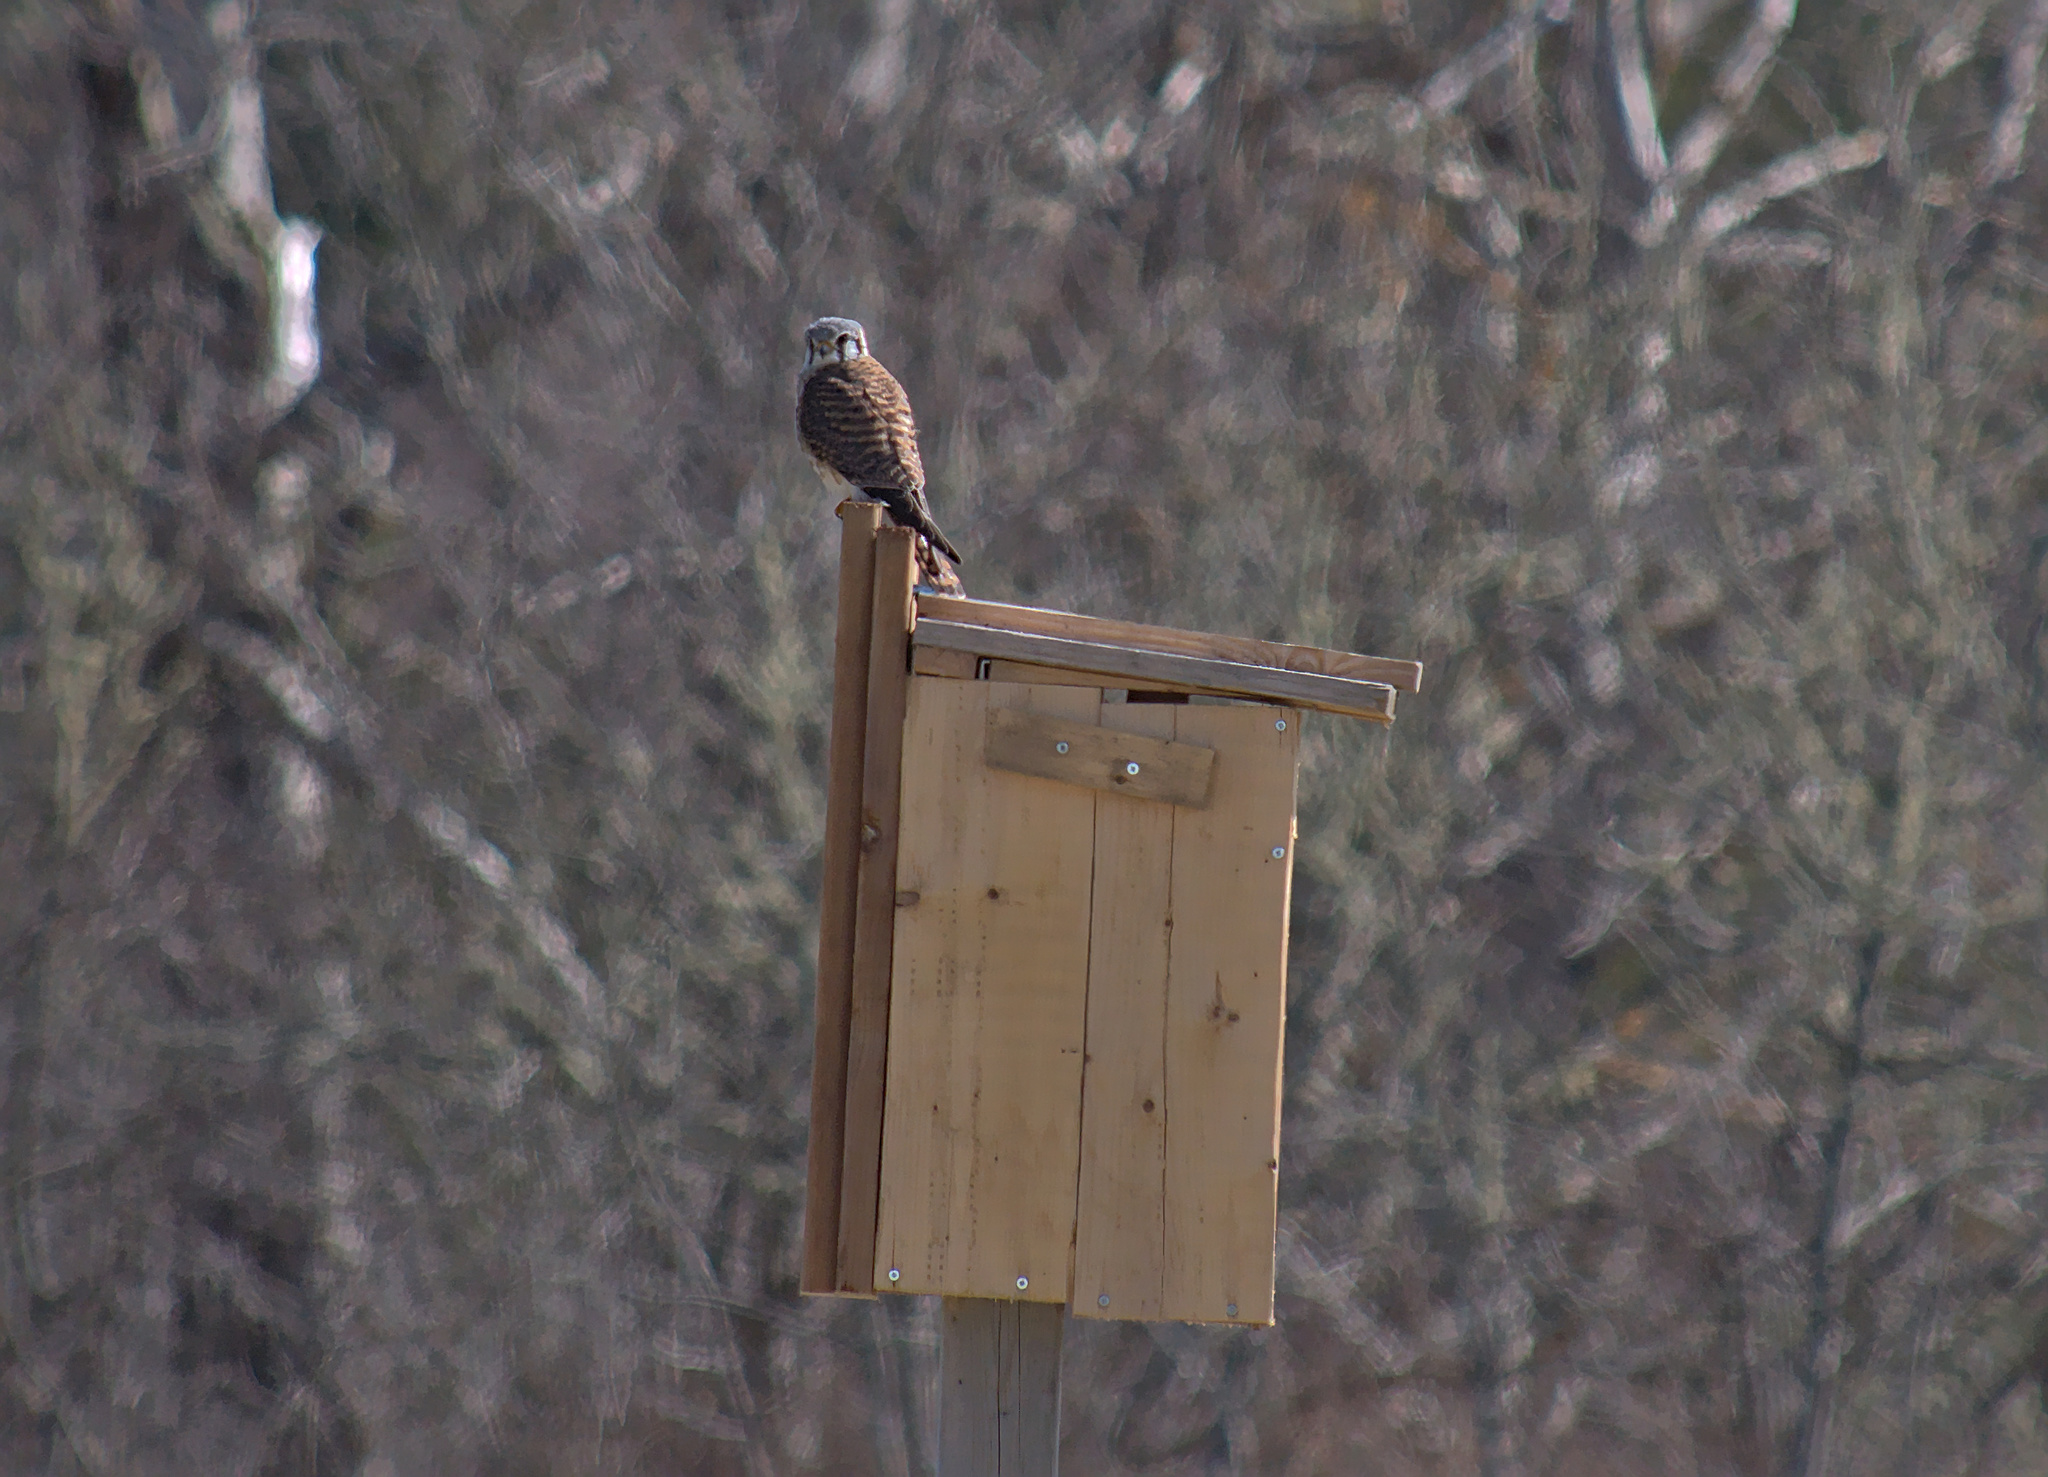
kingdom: Animalia
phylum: Chordata
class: Aves
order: Falconiformes
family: Falconidae
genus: Falco
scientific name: Falco sparverius
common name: American kestrel
